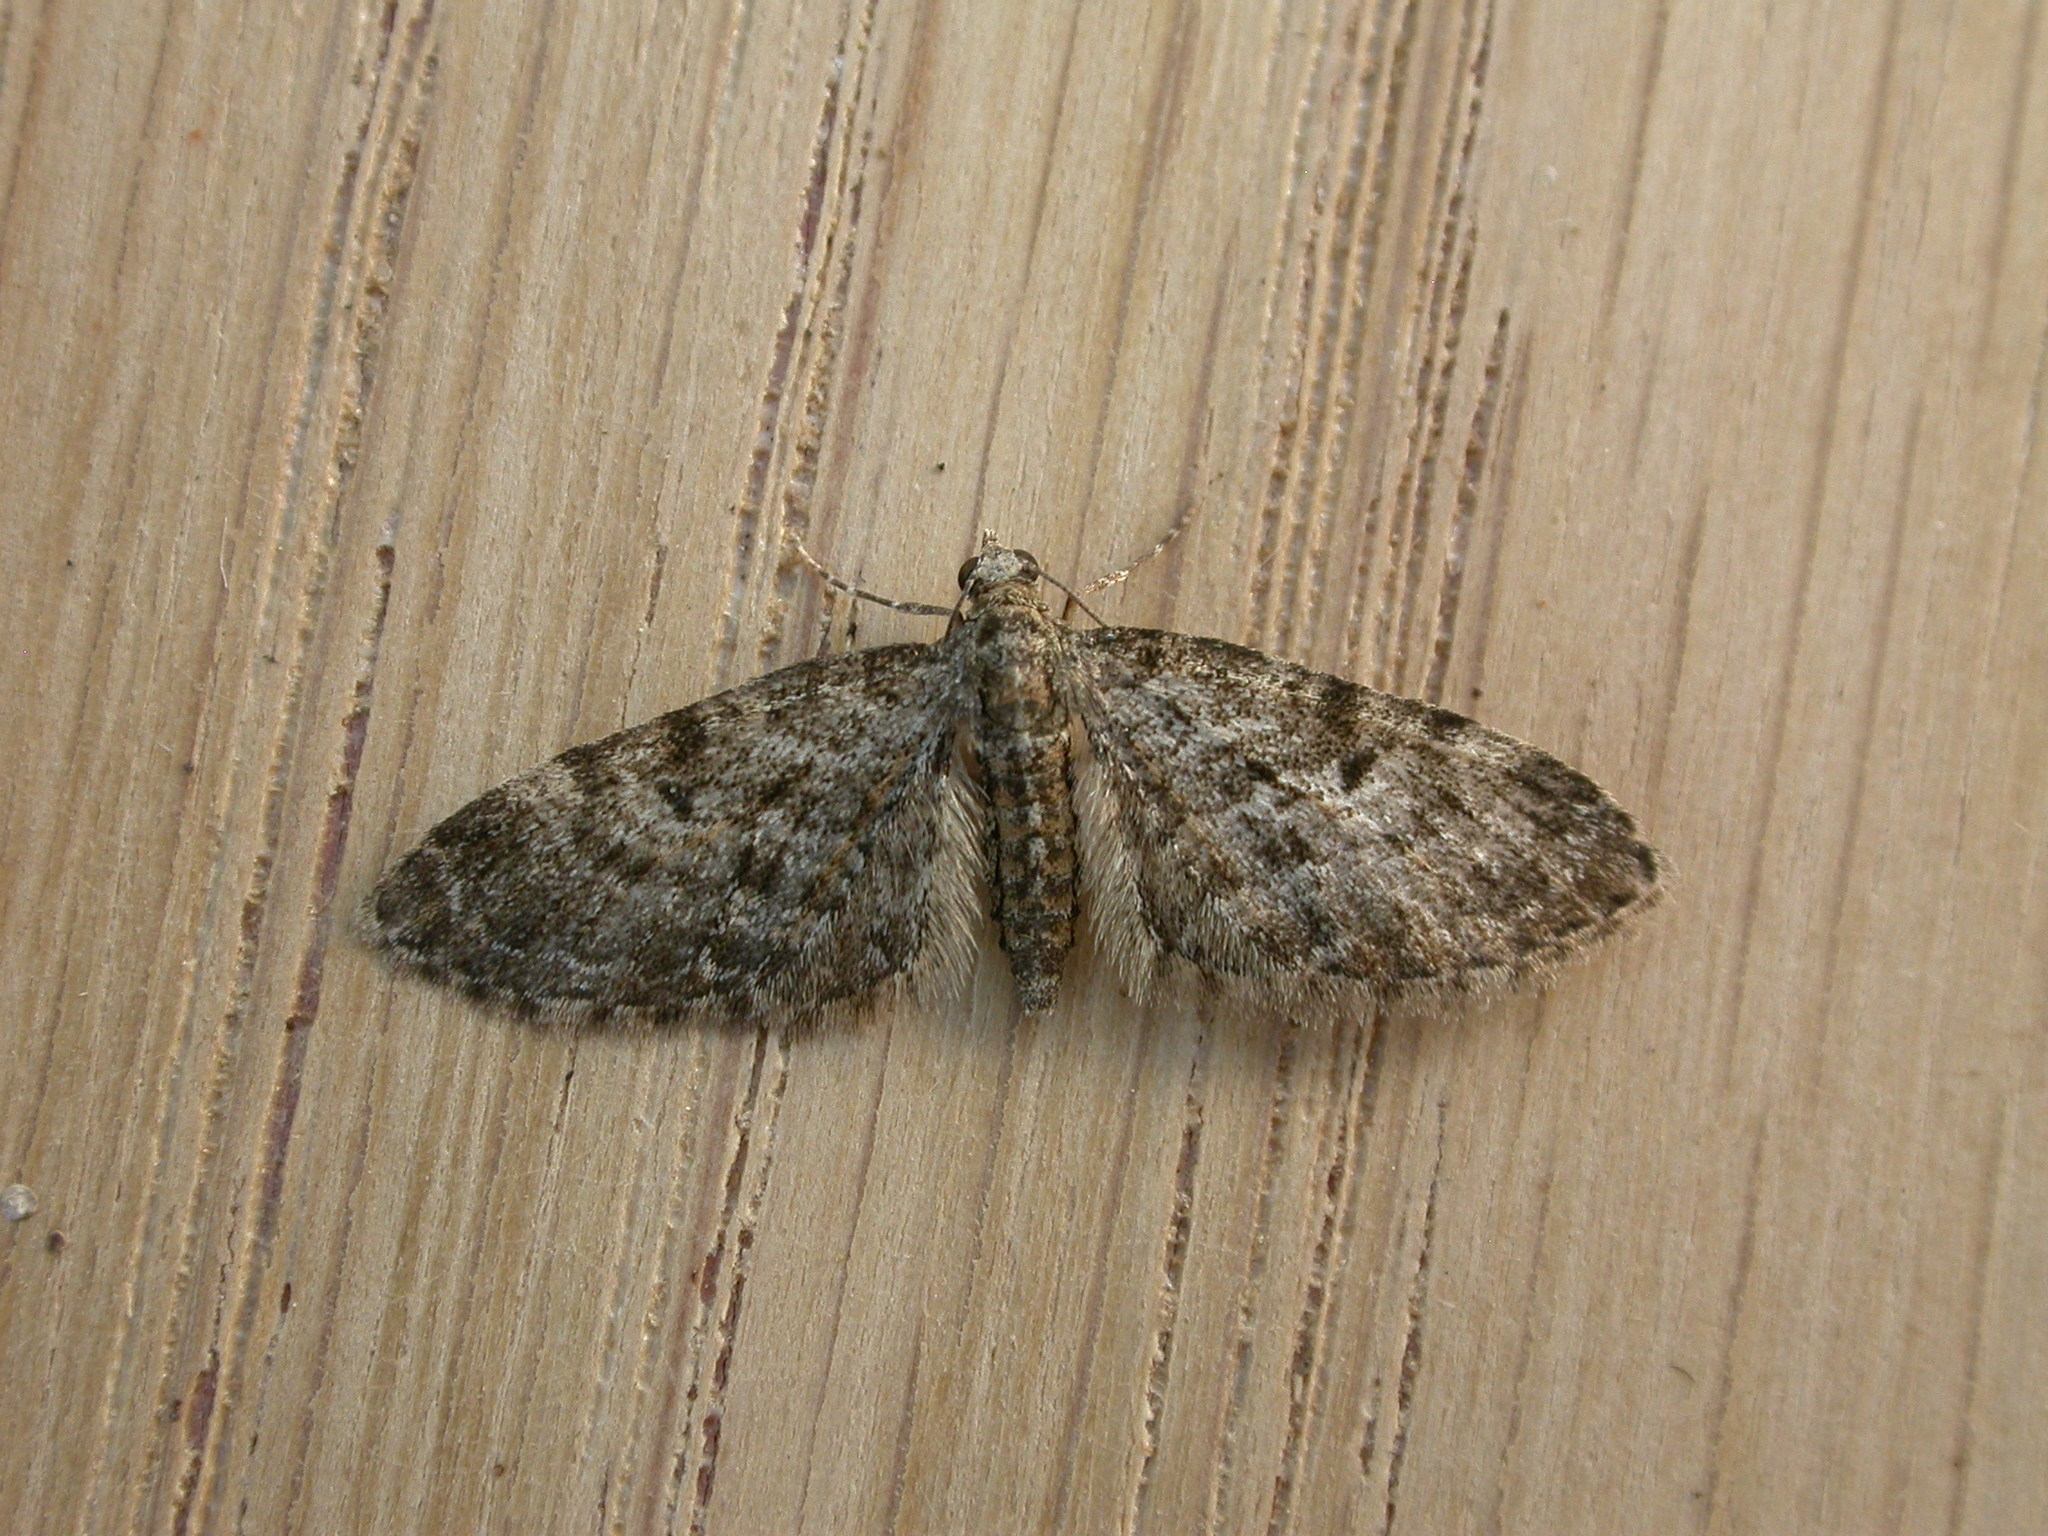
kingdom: Animalia
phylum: Arthropoda
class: Insecta
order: Lepidoptera
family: Geometridae
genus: Eupithecia
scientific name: Eupithecia dodoneata
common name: Oak-tree pug
